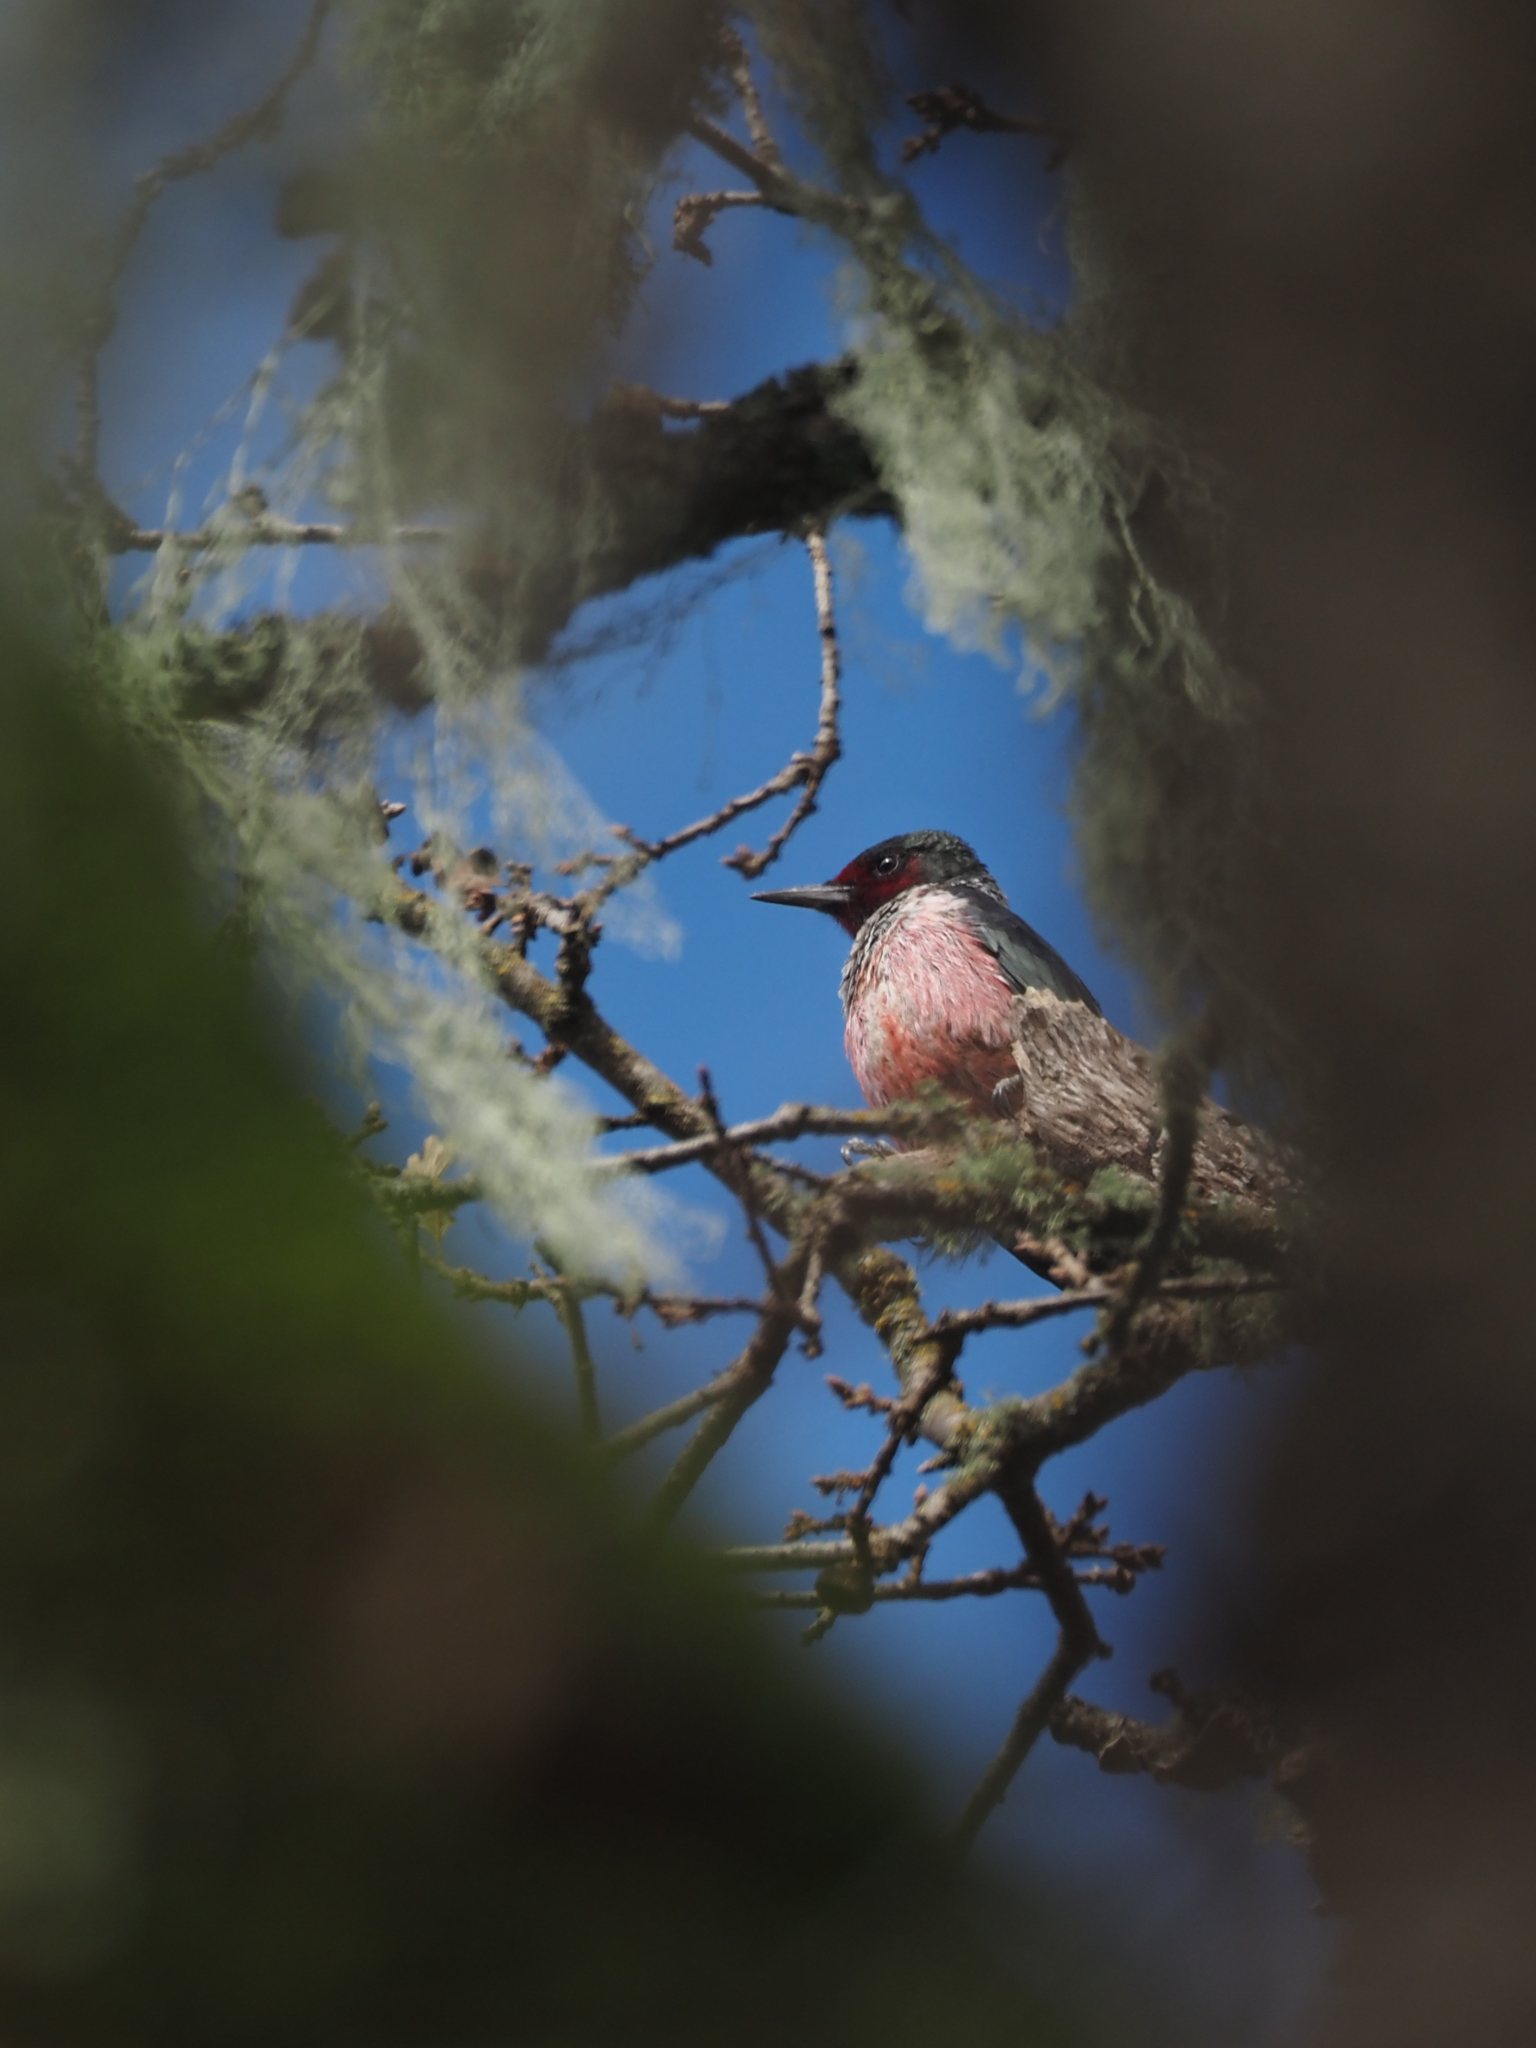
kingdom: Animalia
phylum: Chordata
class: Aves
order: Piciformes
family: Picidae
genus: Melanerpes
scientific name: Melanerpes lewis
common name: Lewis's woodpecker
